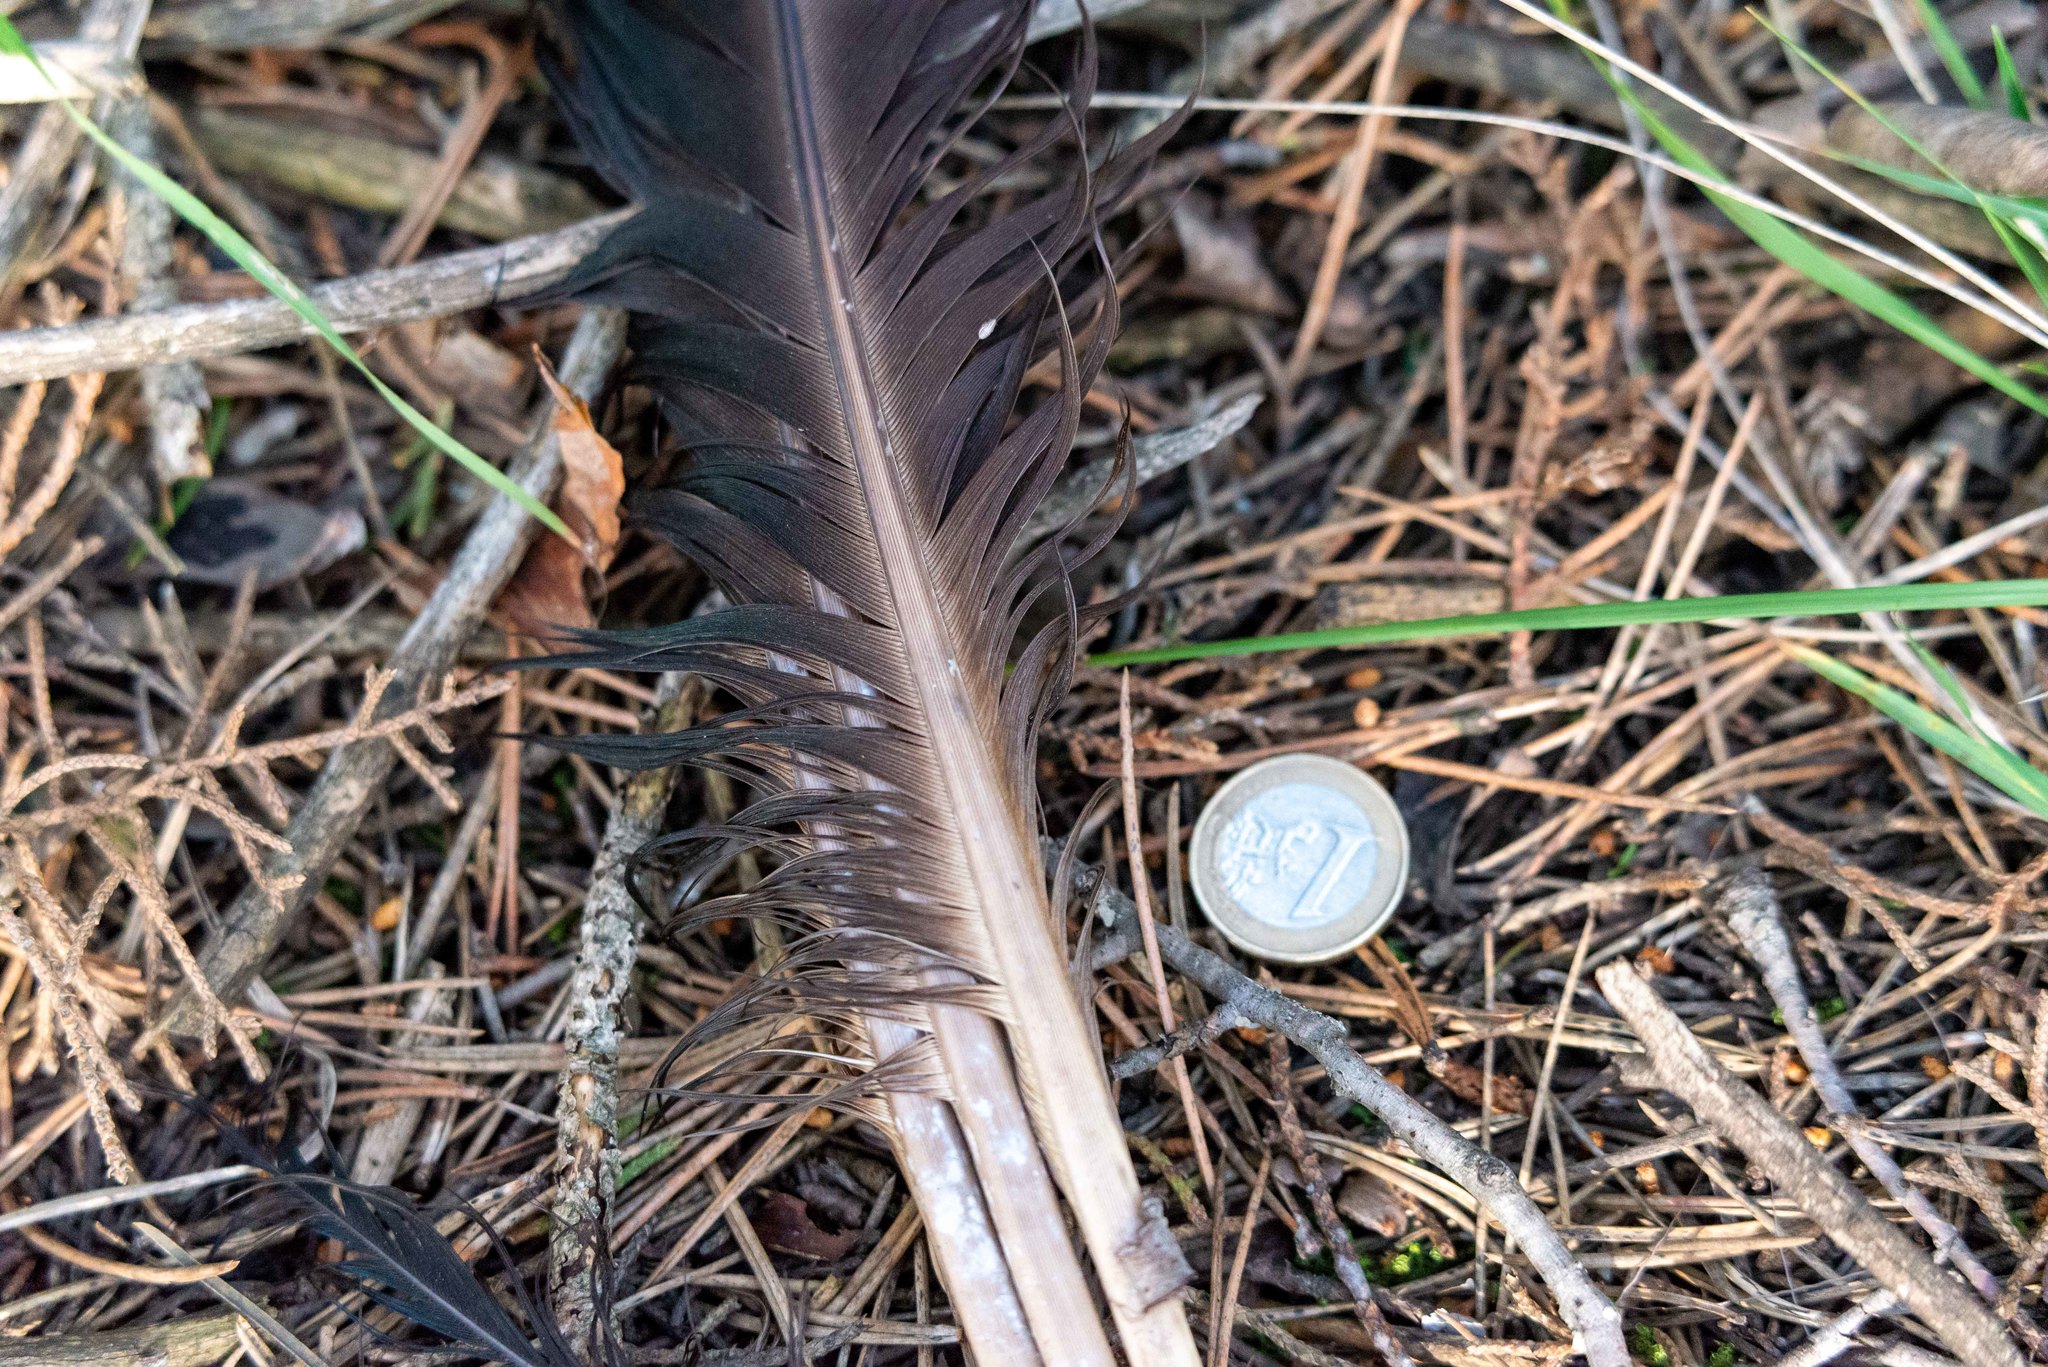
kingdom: Animalia
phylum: Chordata
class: Aves
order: Galliformes
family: Phasianidae
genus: Pavo
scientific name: Pavo cristatus
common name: Indian peafowl
